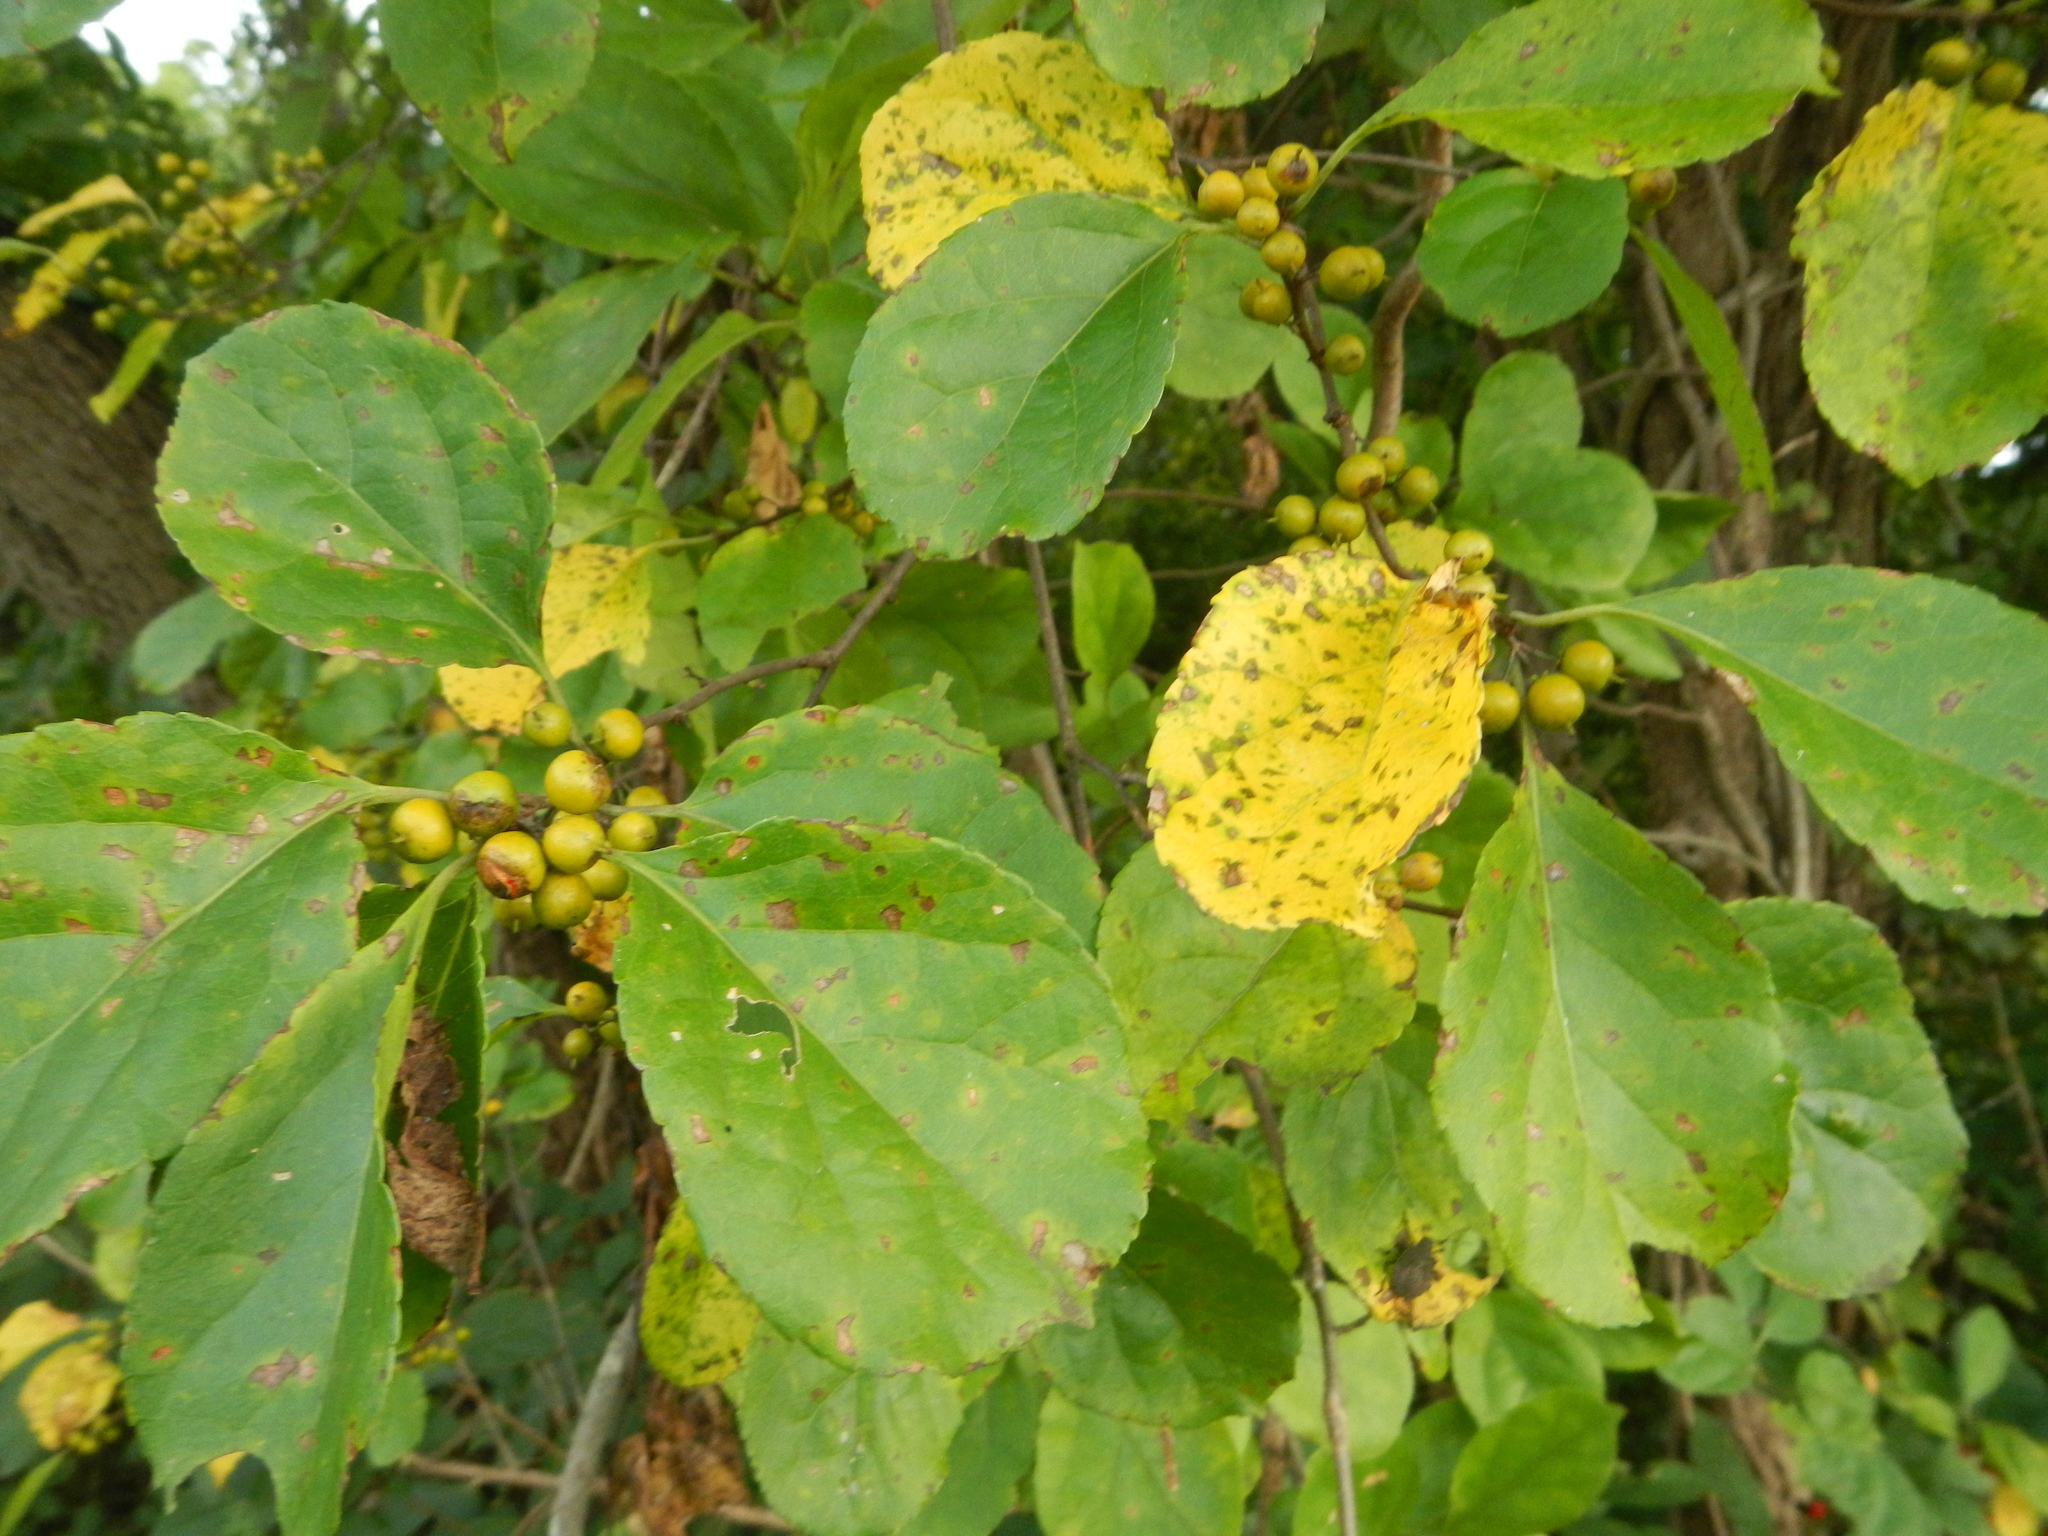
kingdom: Plantae
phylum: Tracheophyta
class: Magnoliopsida
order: Celastrales
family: Celastraceae
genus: Celastrus
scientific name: Celastrus orbiculatus
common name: Oriental bittersweet
